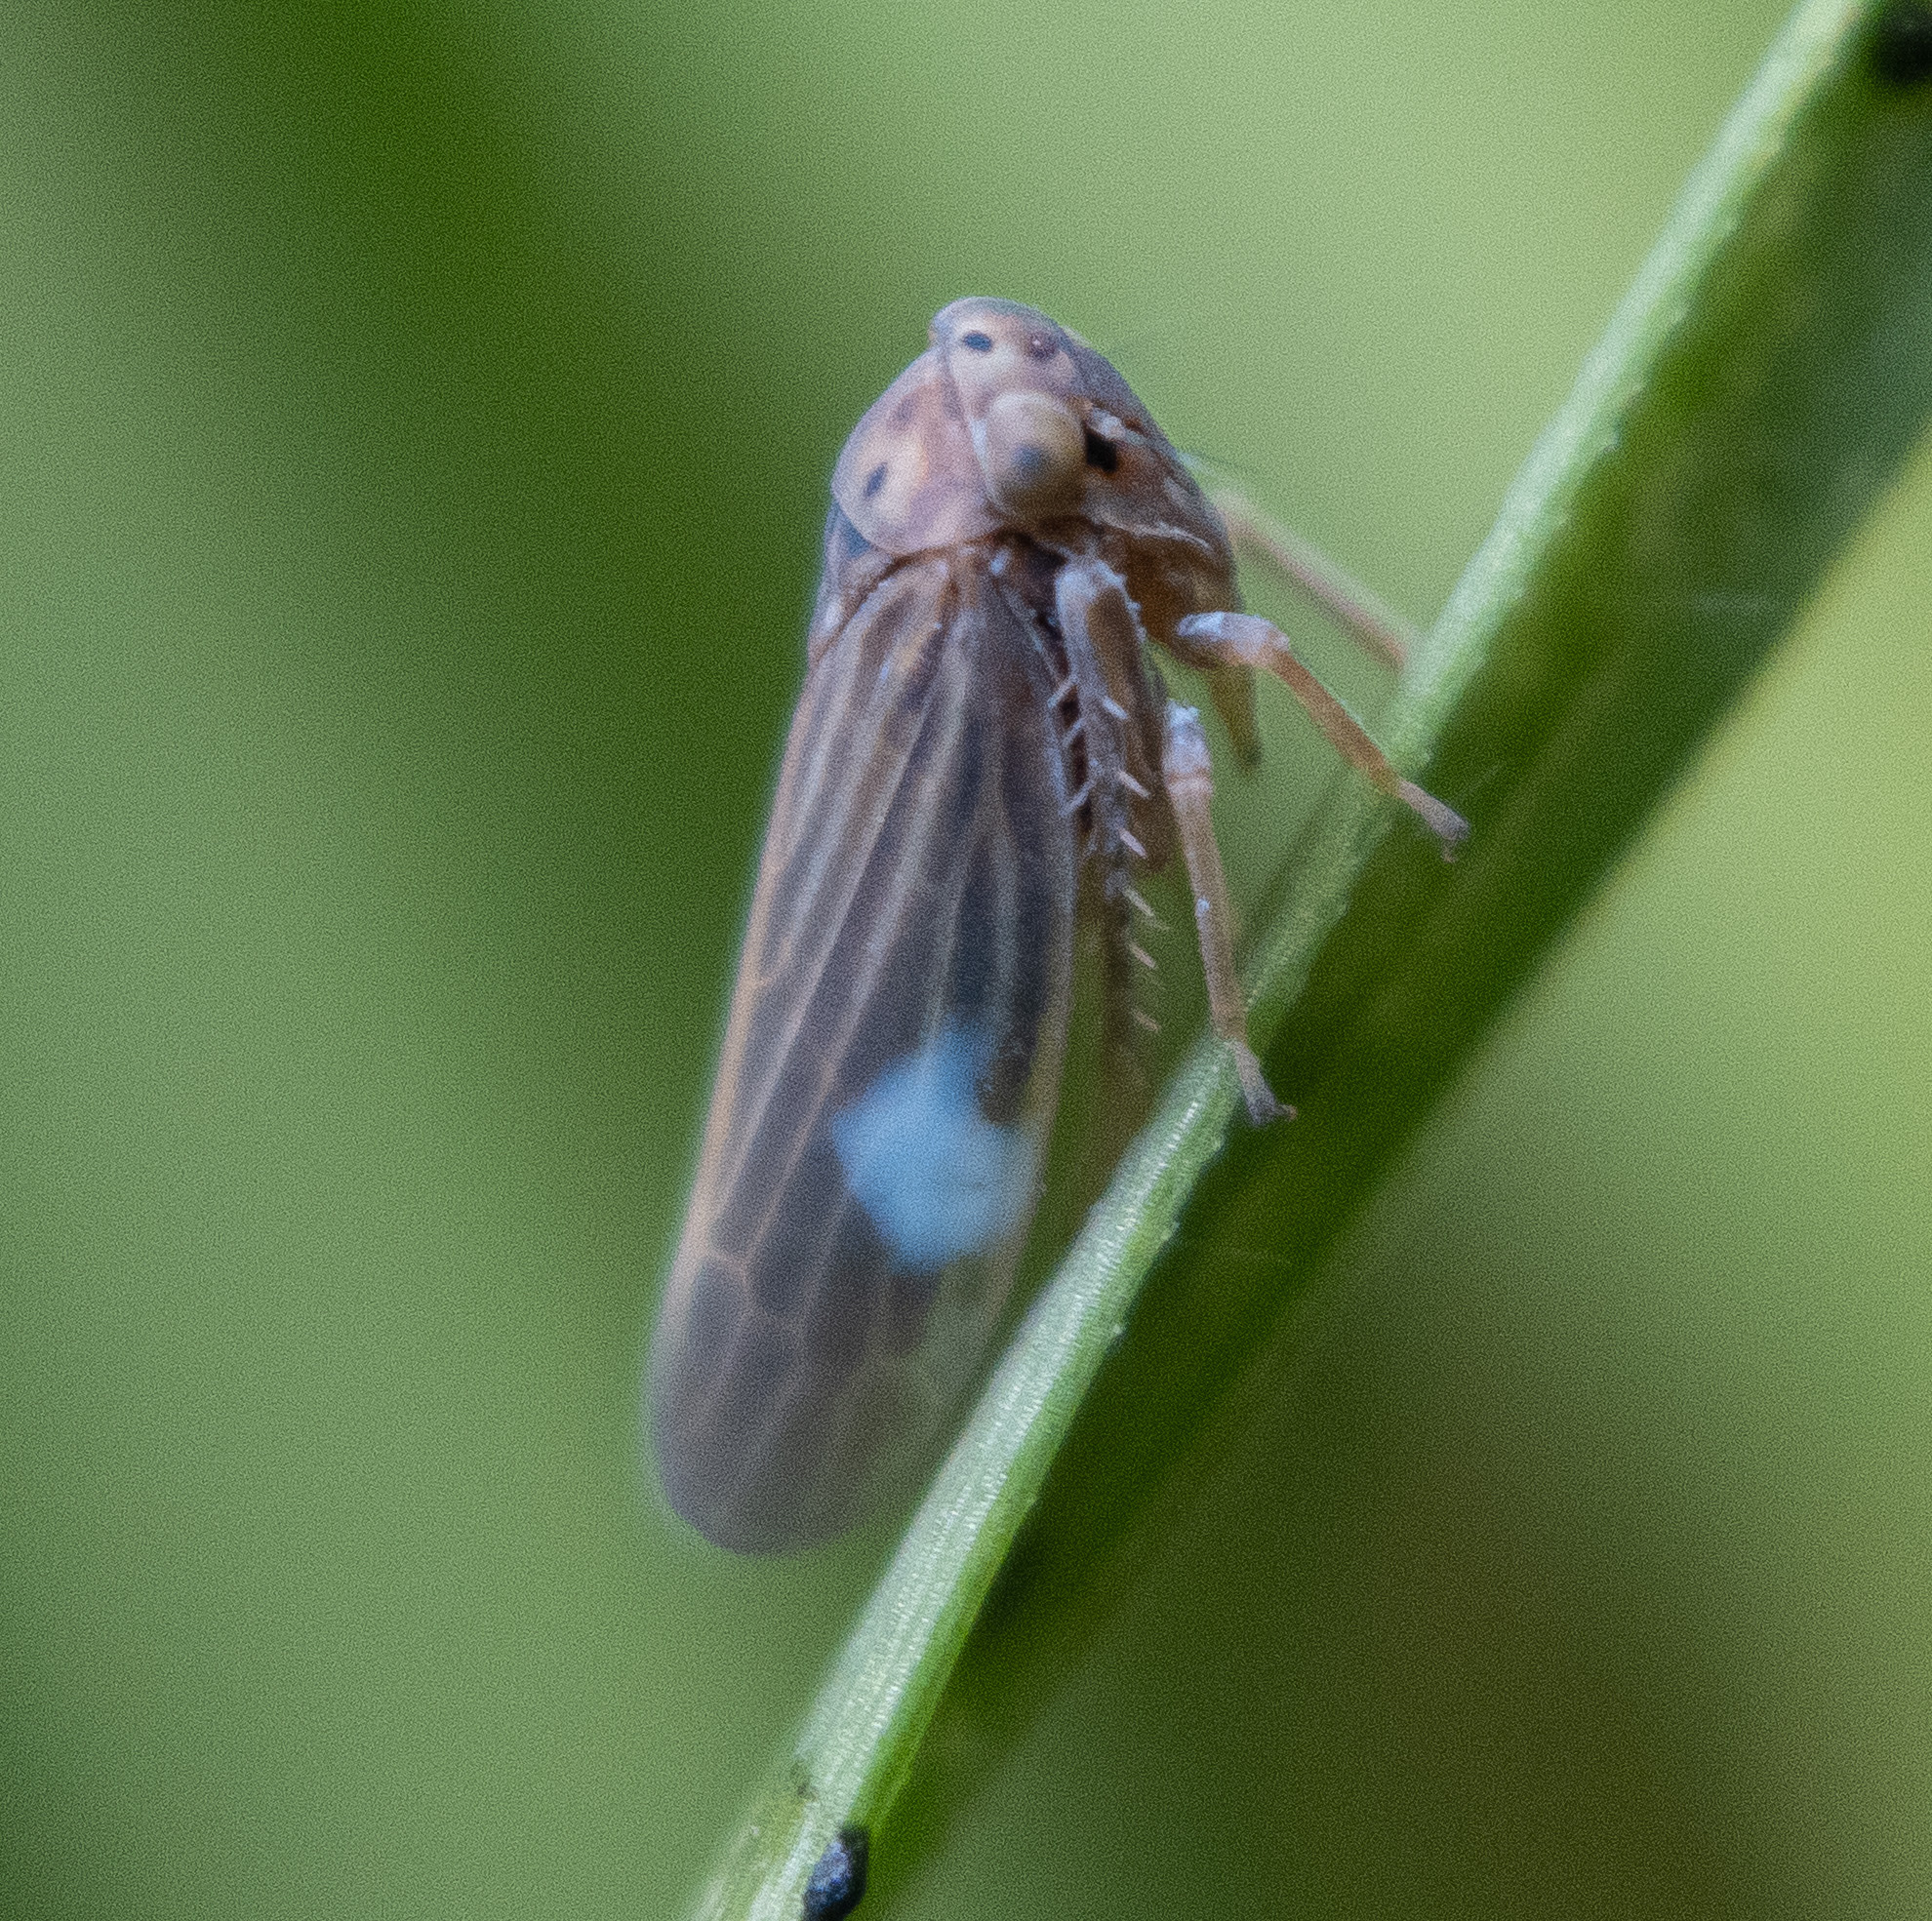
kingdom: Animalia
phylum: Arthropoda
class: Insecta
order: Hemiptera
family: Cicadellidae
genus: Agallia
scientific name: Agallia constricta
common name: The constricted leafhopper
